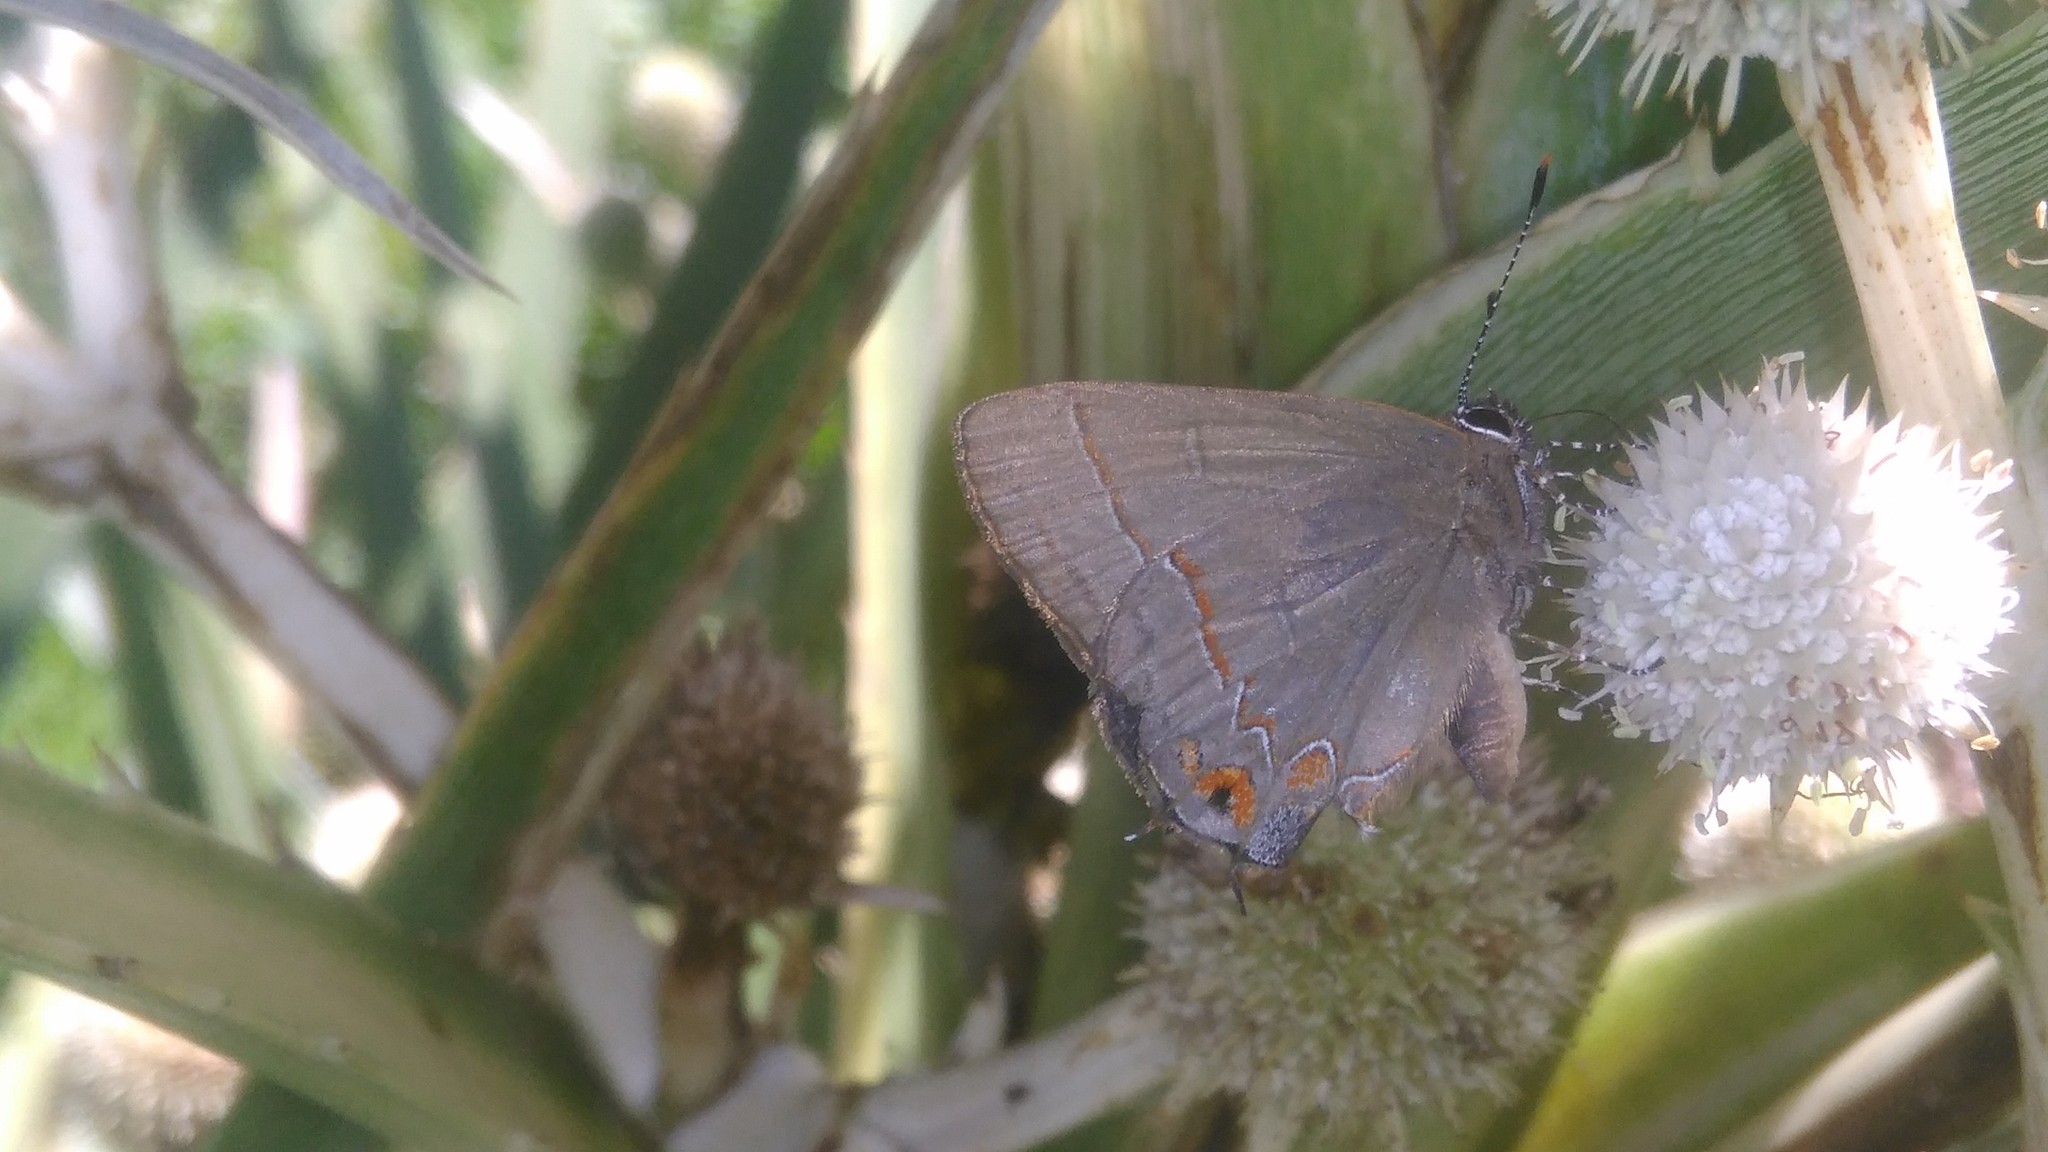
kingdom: Animalia
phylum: Arthropoda
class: Insecta
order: Lepidoptera
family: Lycaenidae
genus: Calycopis
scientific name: Calycopis caulonia
